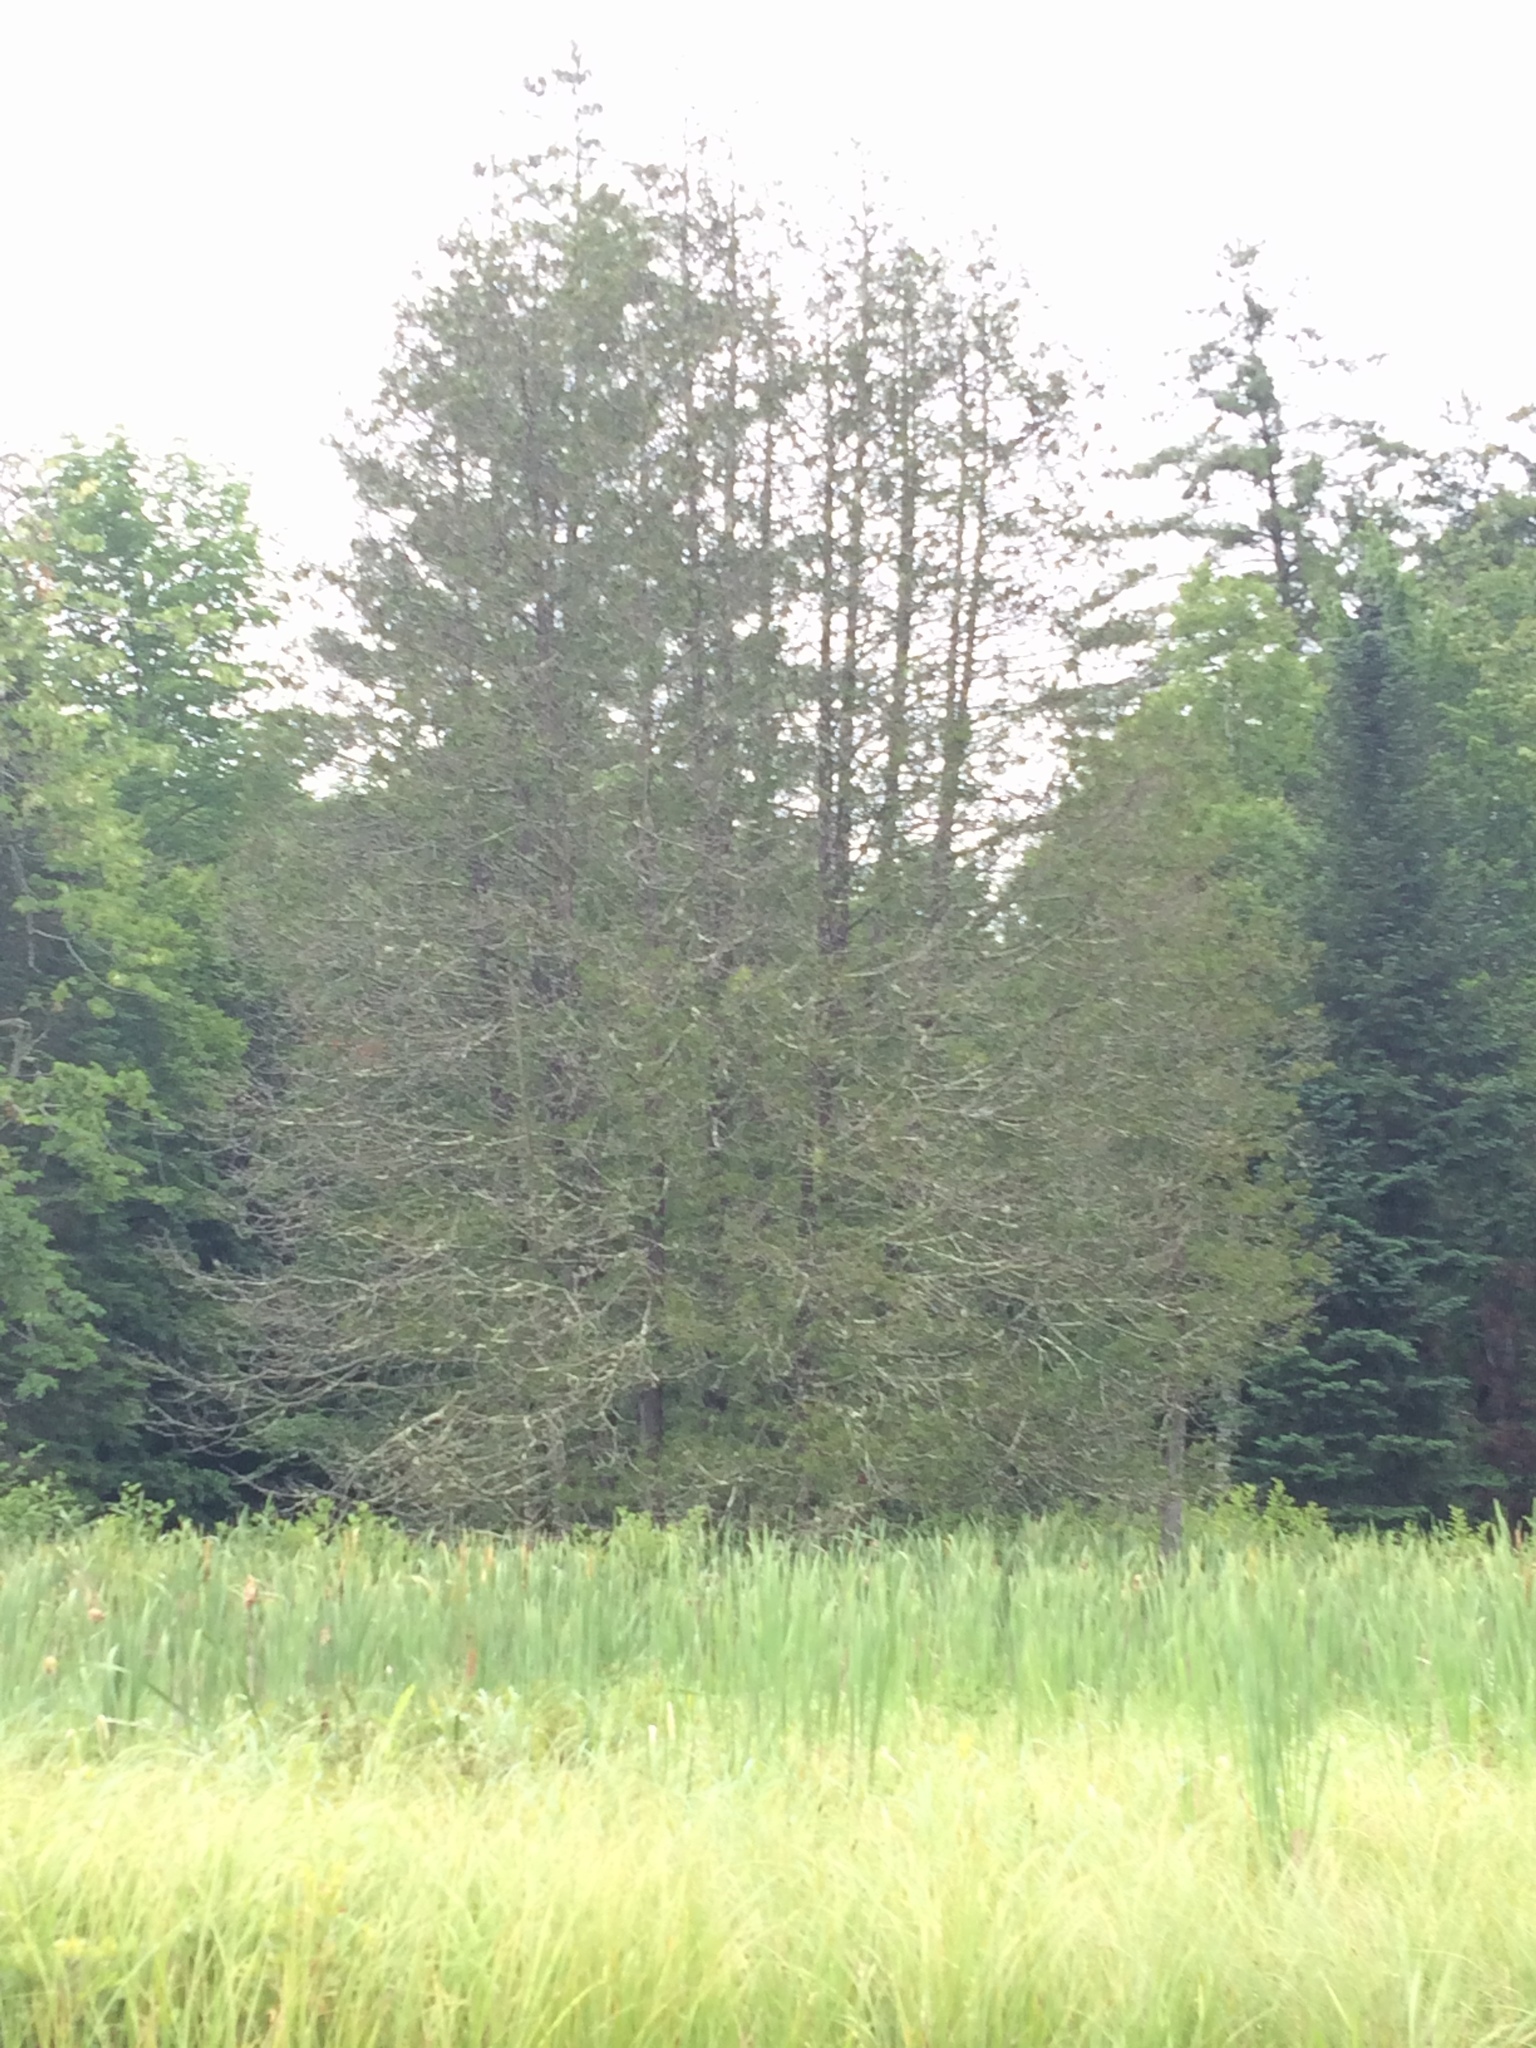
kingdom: Plantae
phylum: Tracheophyta
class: Pinopsida
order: Pinales
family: Cupressaceae
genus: Thuja
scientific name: Thuja occidentalis
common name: Northern white-cedar
